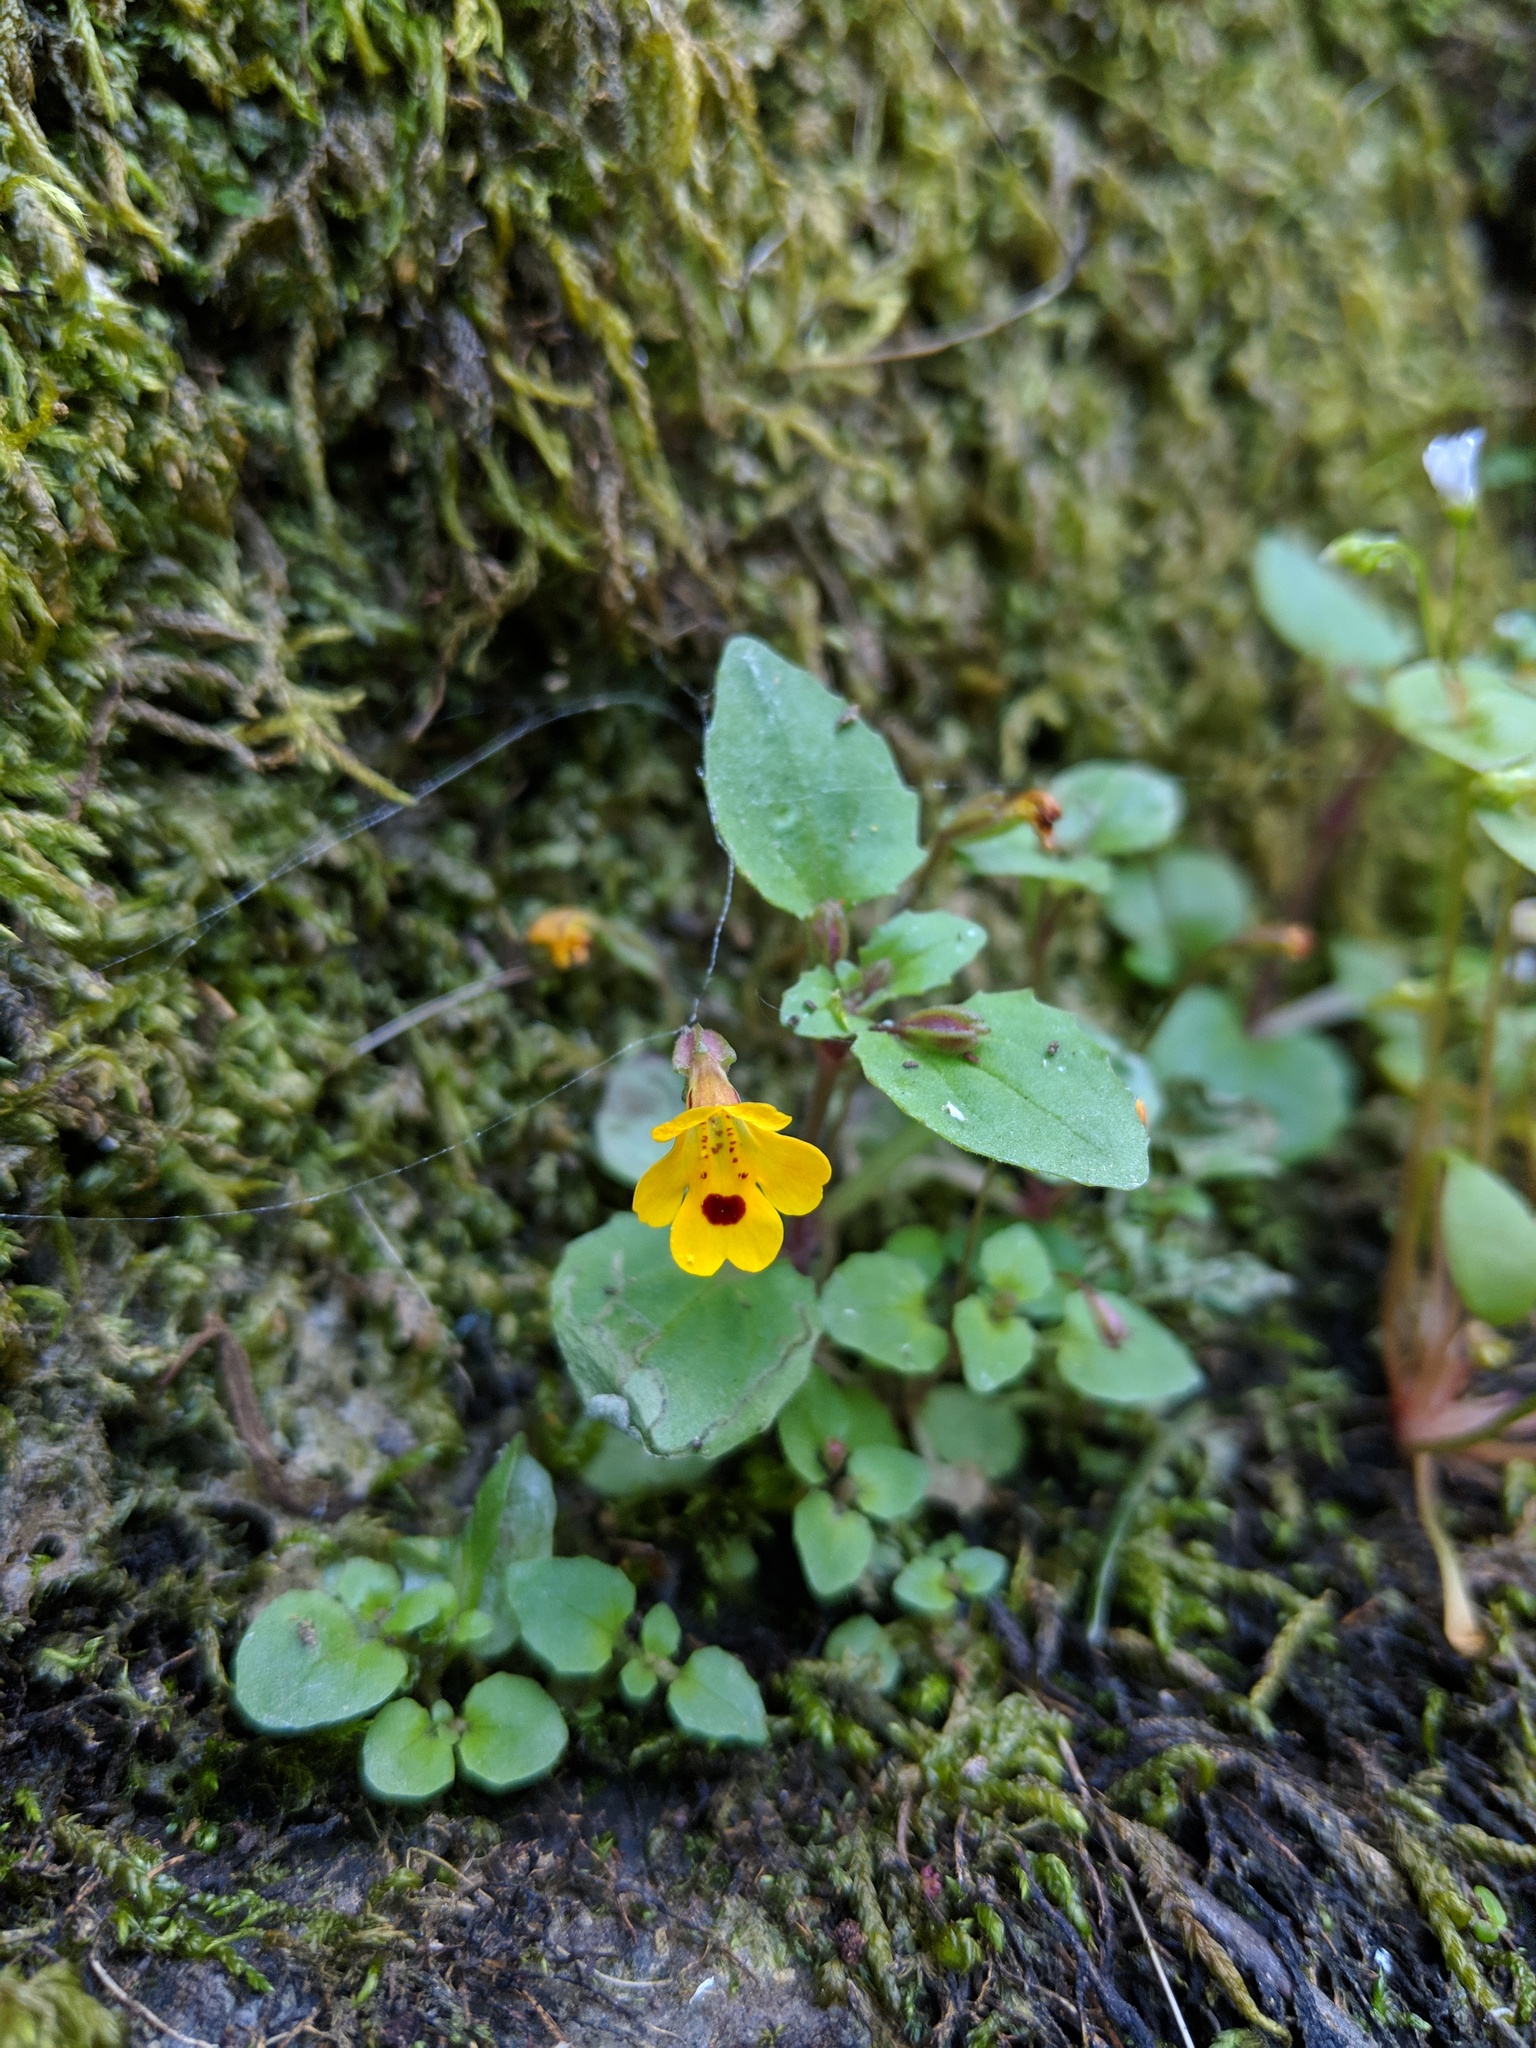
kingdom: Plantae
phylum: Tracheophyta
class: Magnoliopsida
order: Lamiales
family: Phrymaceae
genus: Erythranthe
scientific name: Erythranthe alsinoides
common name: Chickweed monkeyflower
